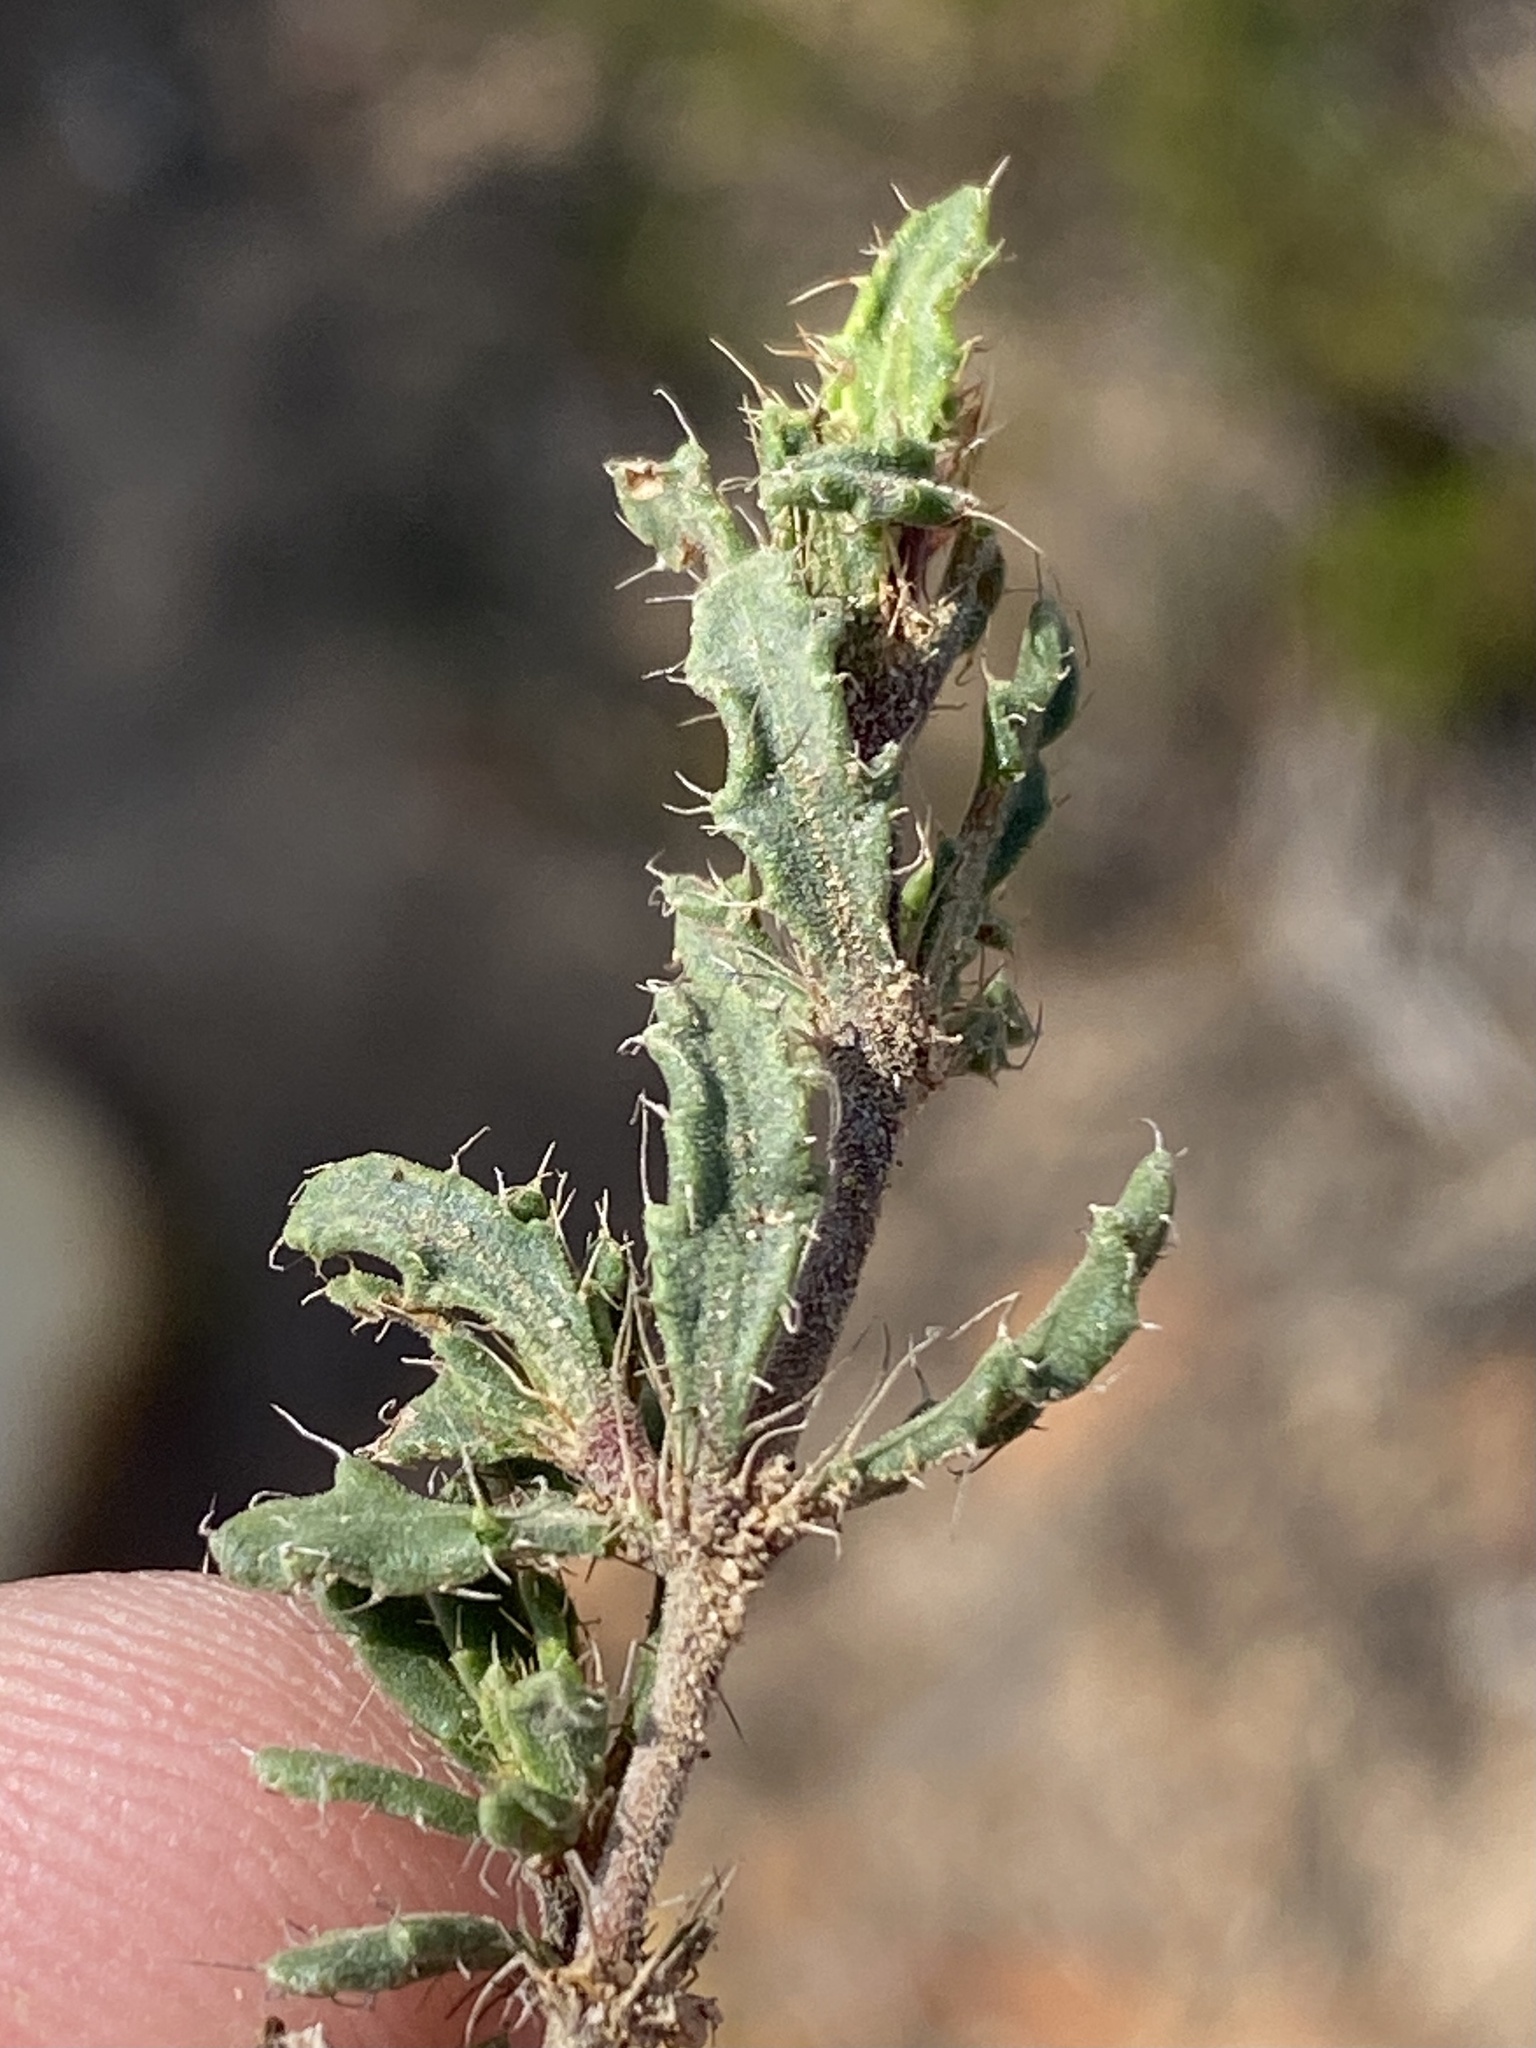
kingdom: Plantae
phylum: Tracheophyta
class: Magnoliopsida
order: Lamiales
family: Acanthaceae
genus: Blepharis
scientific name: Blepharis procumbens
